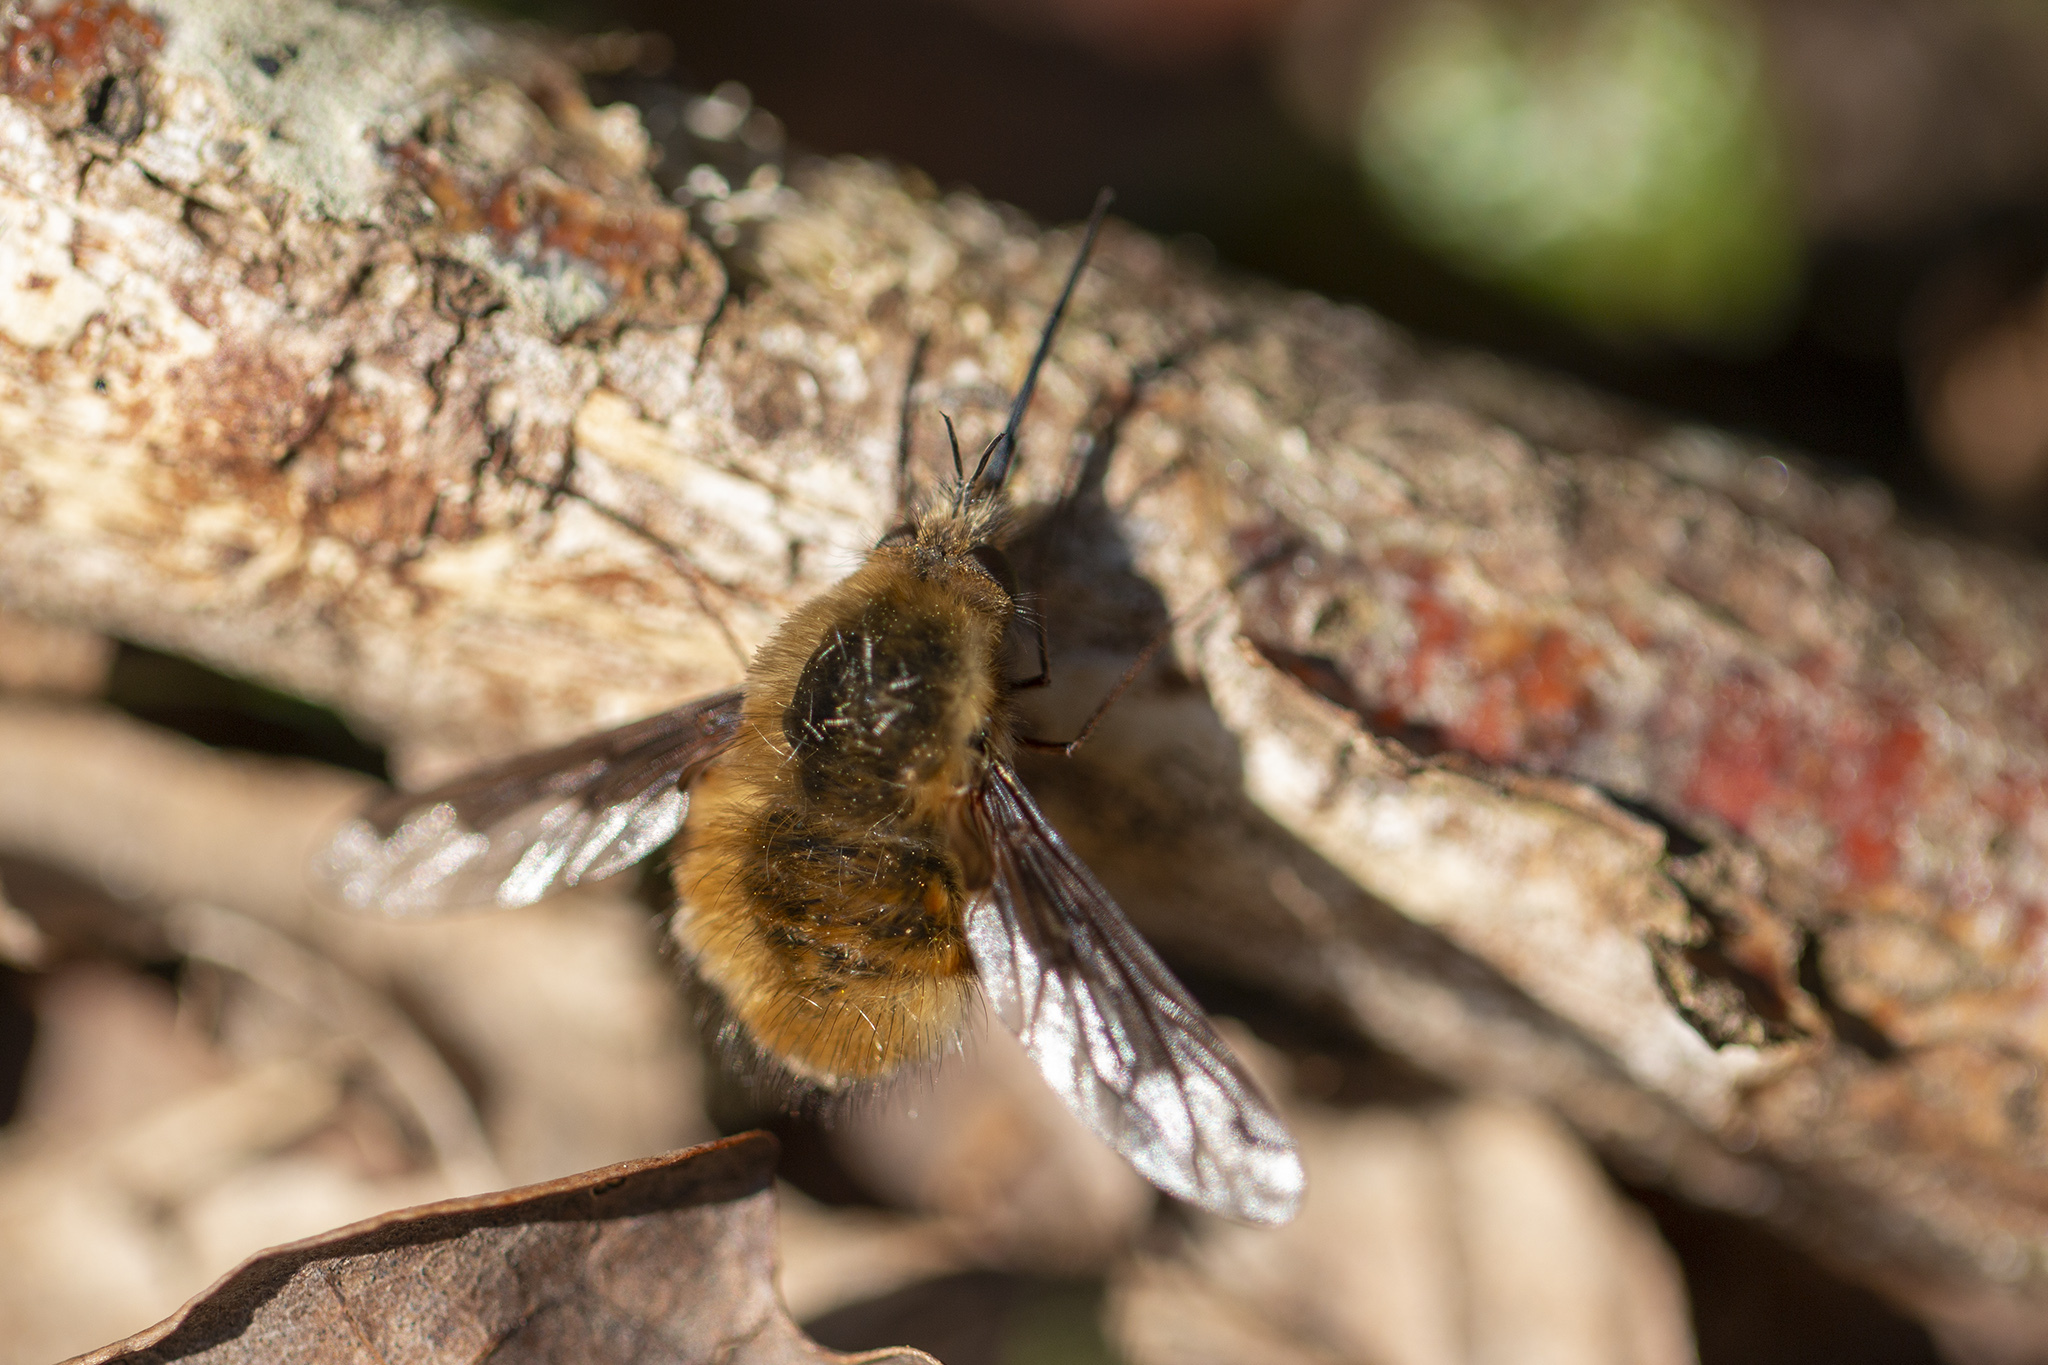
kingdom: Animalia
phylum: Arthropoda
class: Insecta
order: Diptera
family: Bombyliidae
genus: Bombylius
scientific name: Bombylius major
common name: Bee fly
